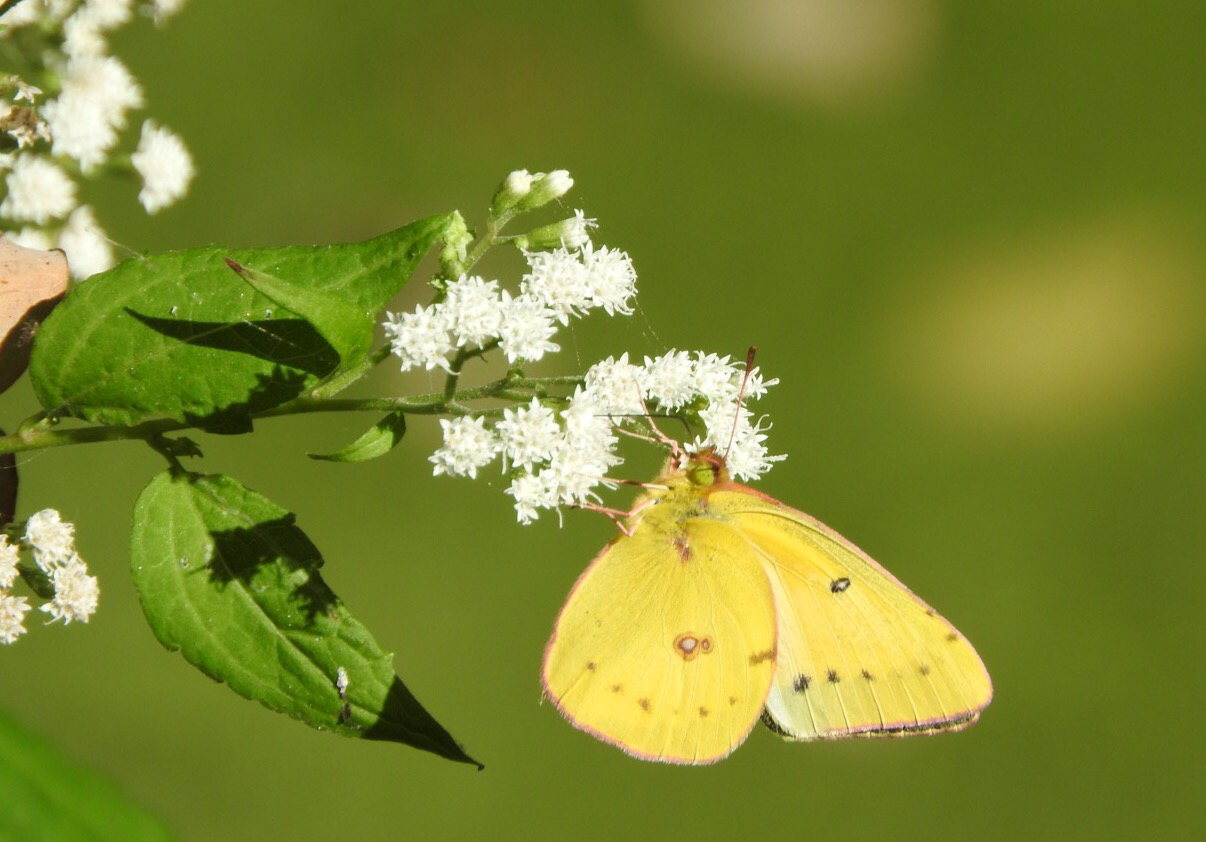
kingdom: Animalia
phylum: Arthropoda
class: Insecta
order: Lepidoptera
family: Pieridae
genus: Colias
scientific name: Colias eurytheme
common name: Alfalfa butterfly
